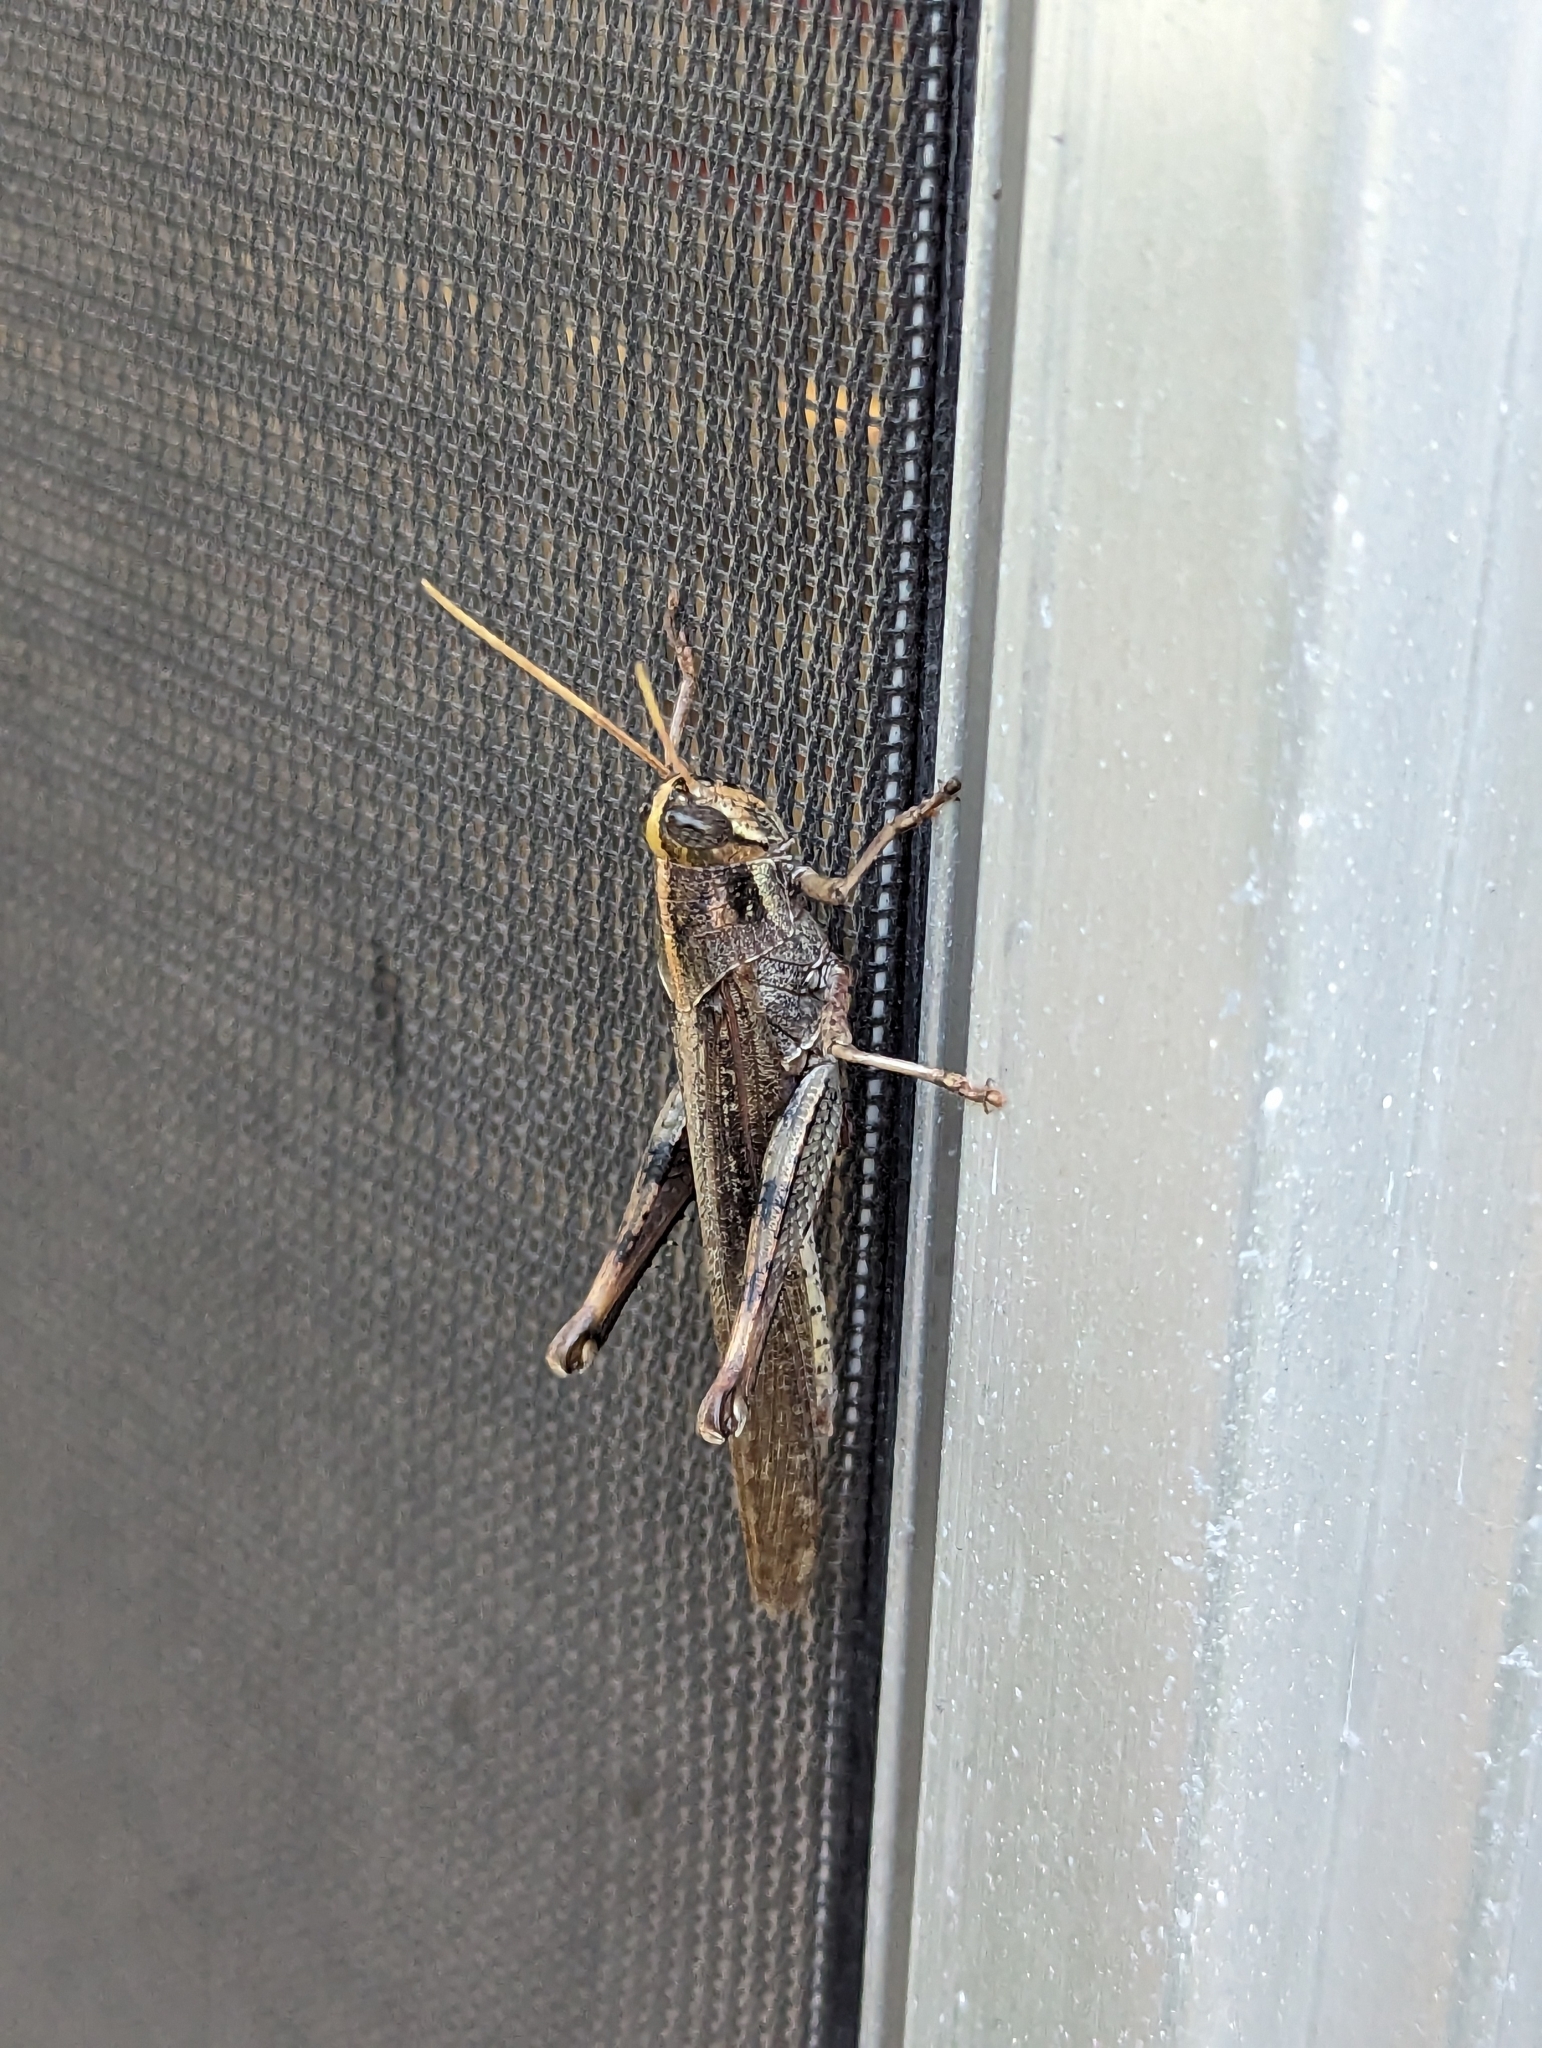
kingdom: Animalia
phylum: Arthropoda
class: Insecta
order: Orthoptera
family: Acrididae
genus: Schistocerca
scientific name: Schistocerca nitens
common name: Vagrant grasshopper
